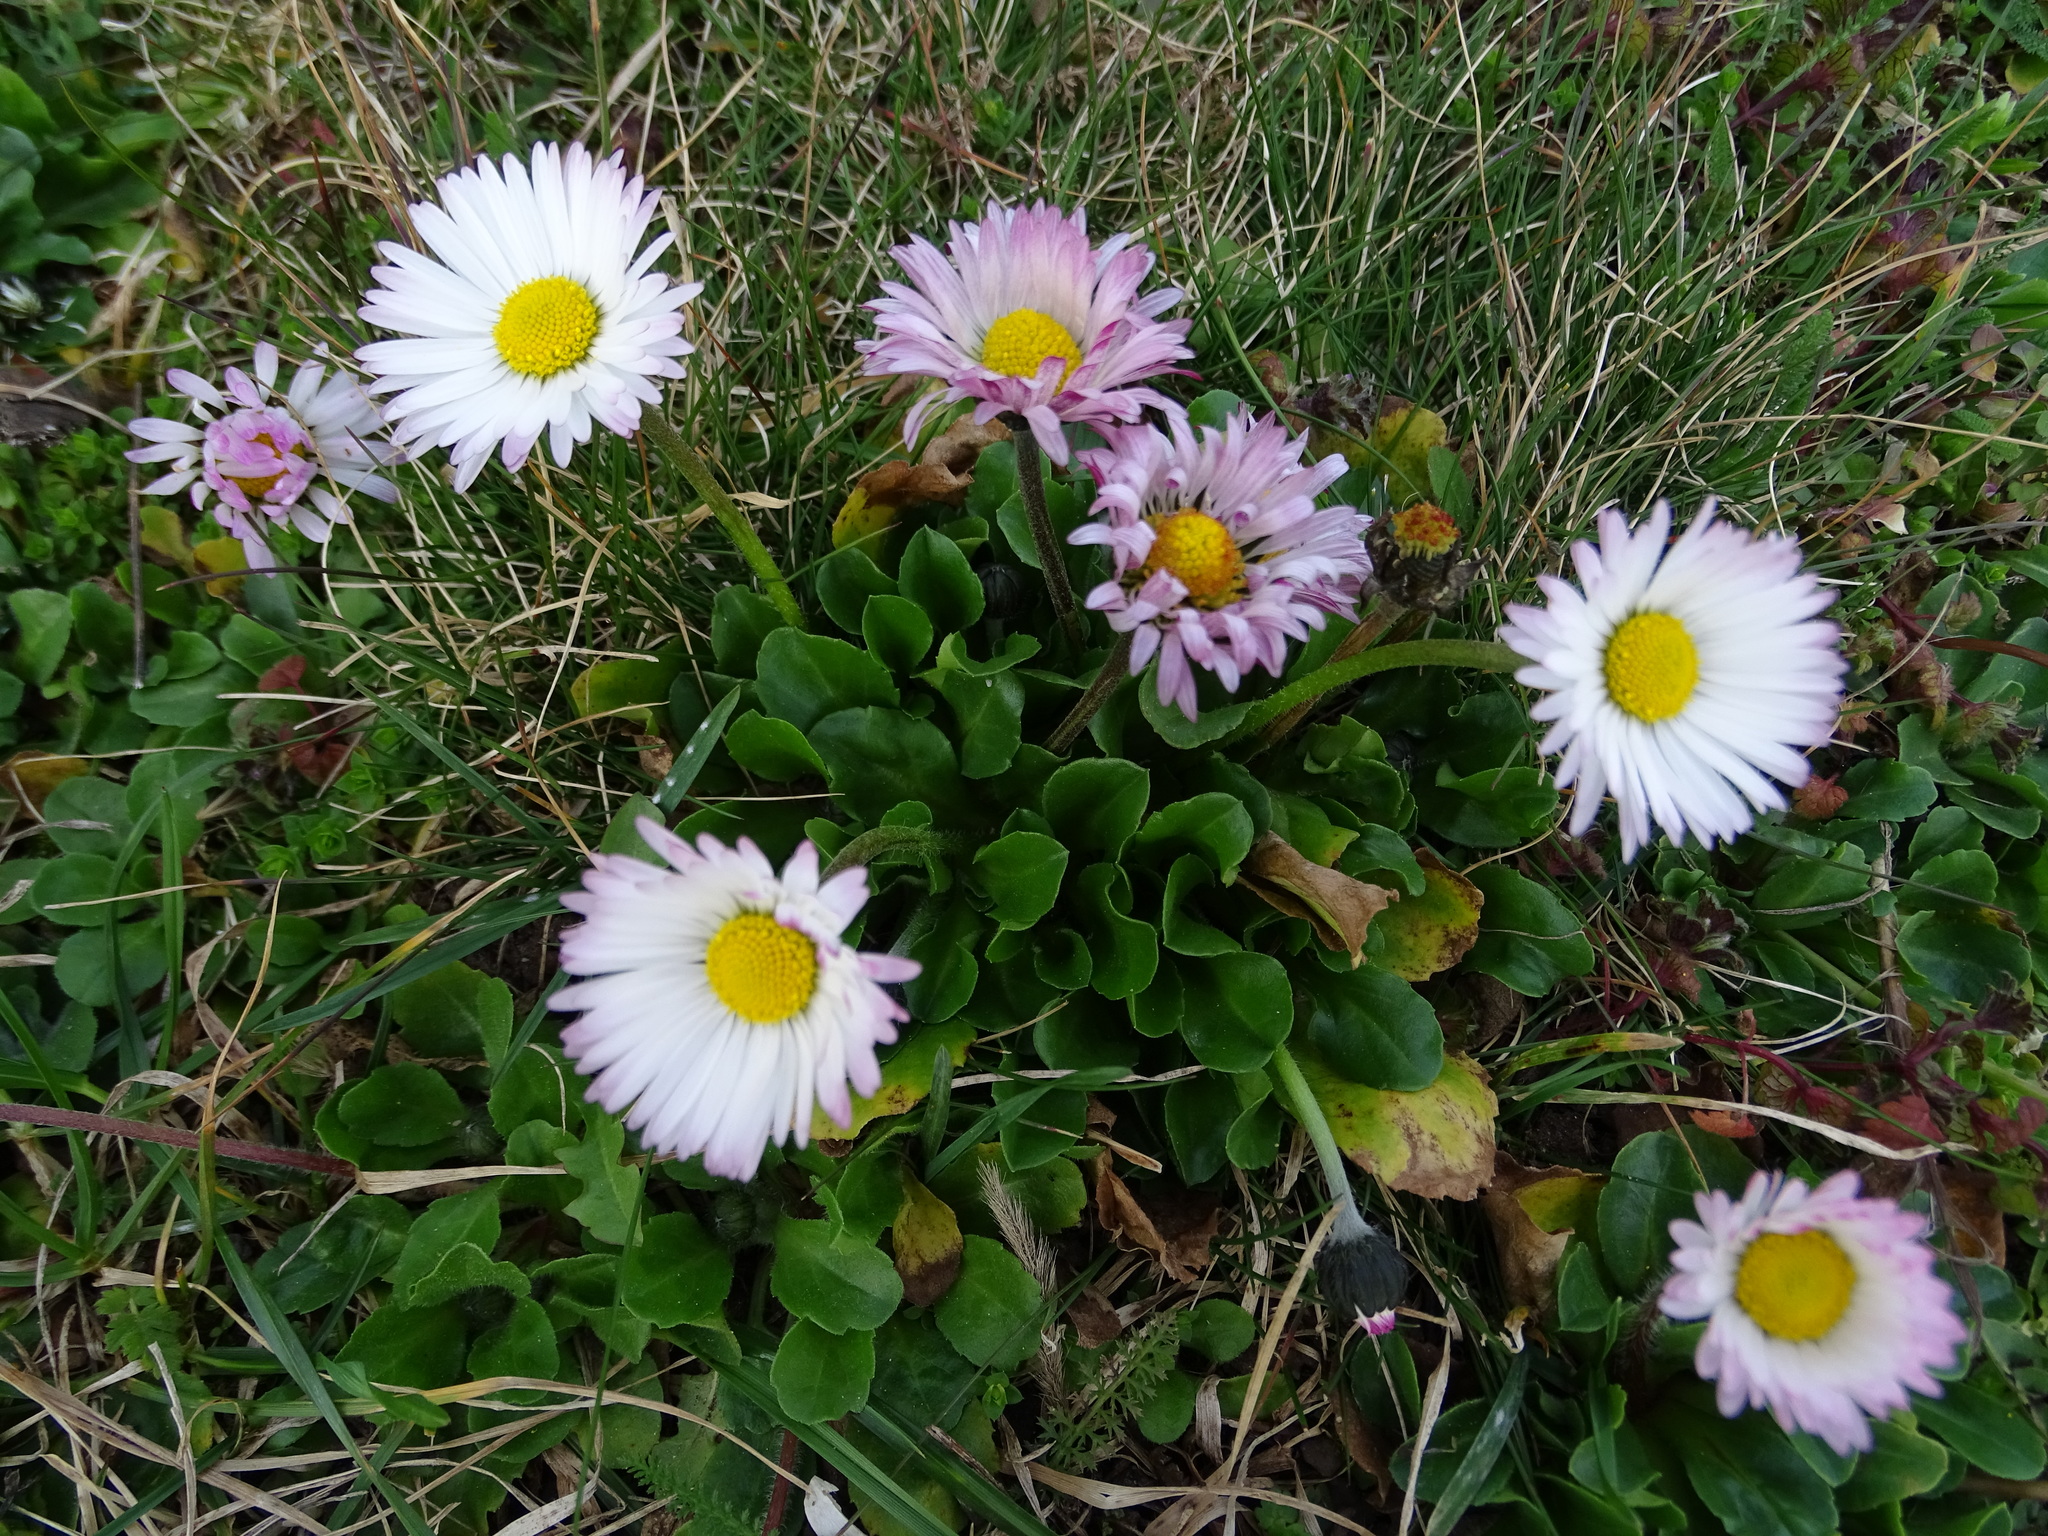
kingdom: Plantae
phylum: Tracheophyta
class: Magnoliopsida
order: Asterales
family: Asteraceae
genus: Bellis
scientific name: Bellis perennis
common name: Lawndaisy
